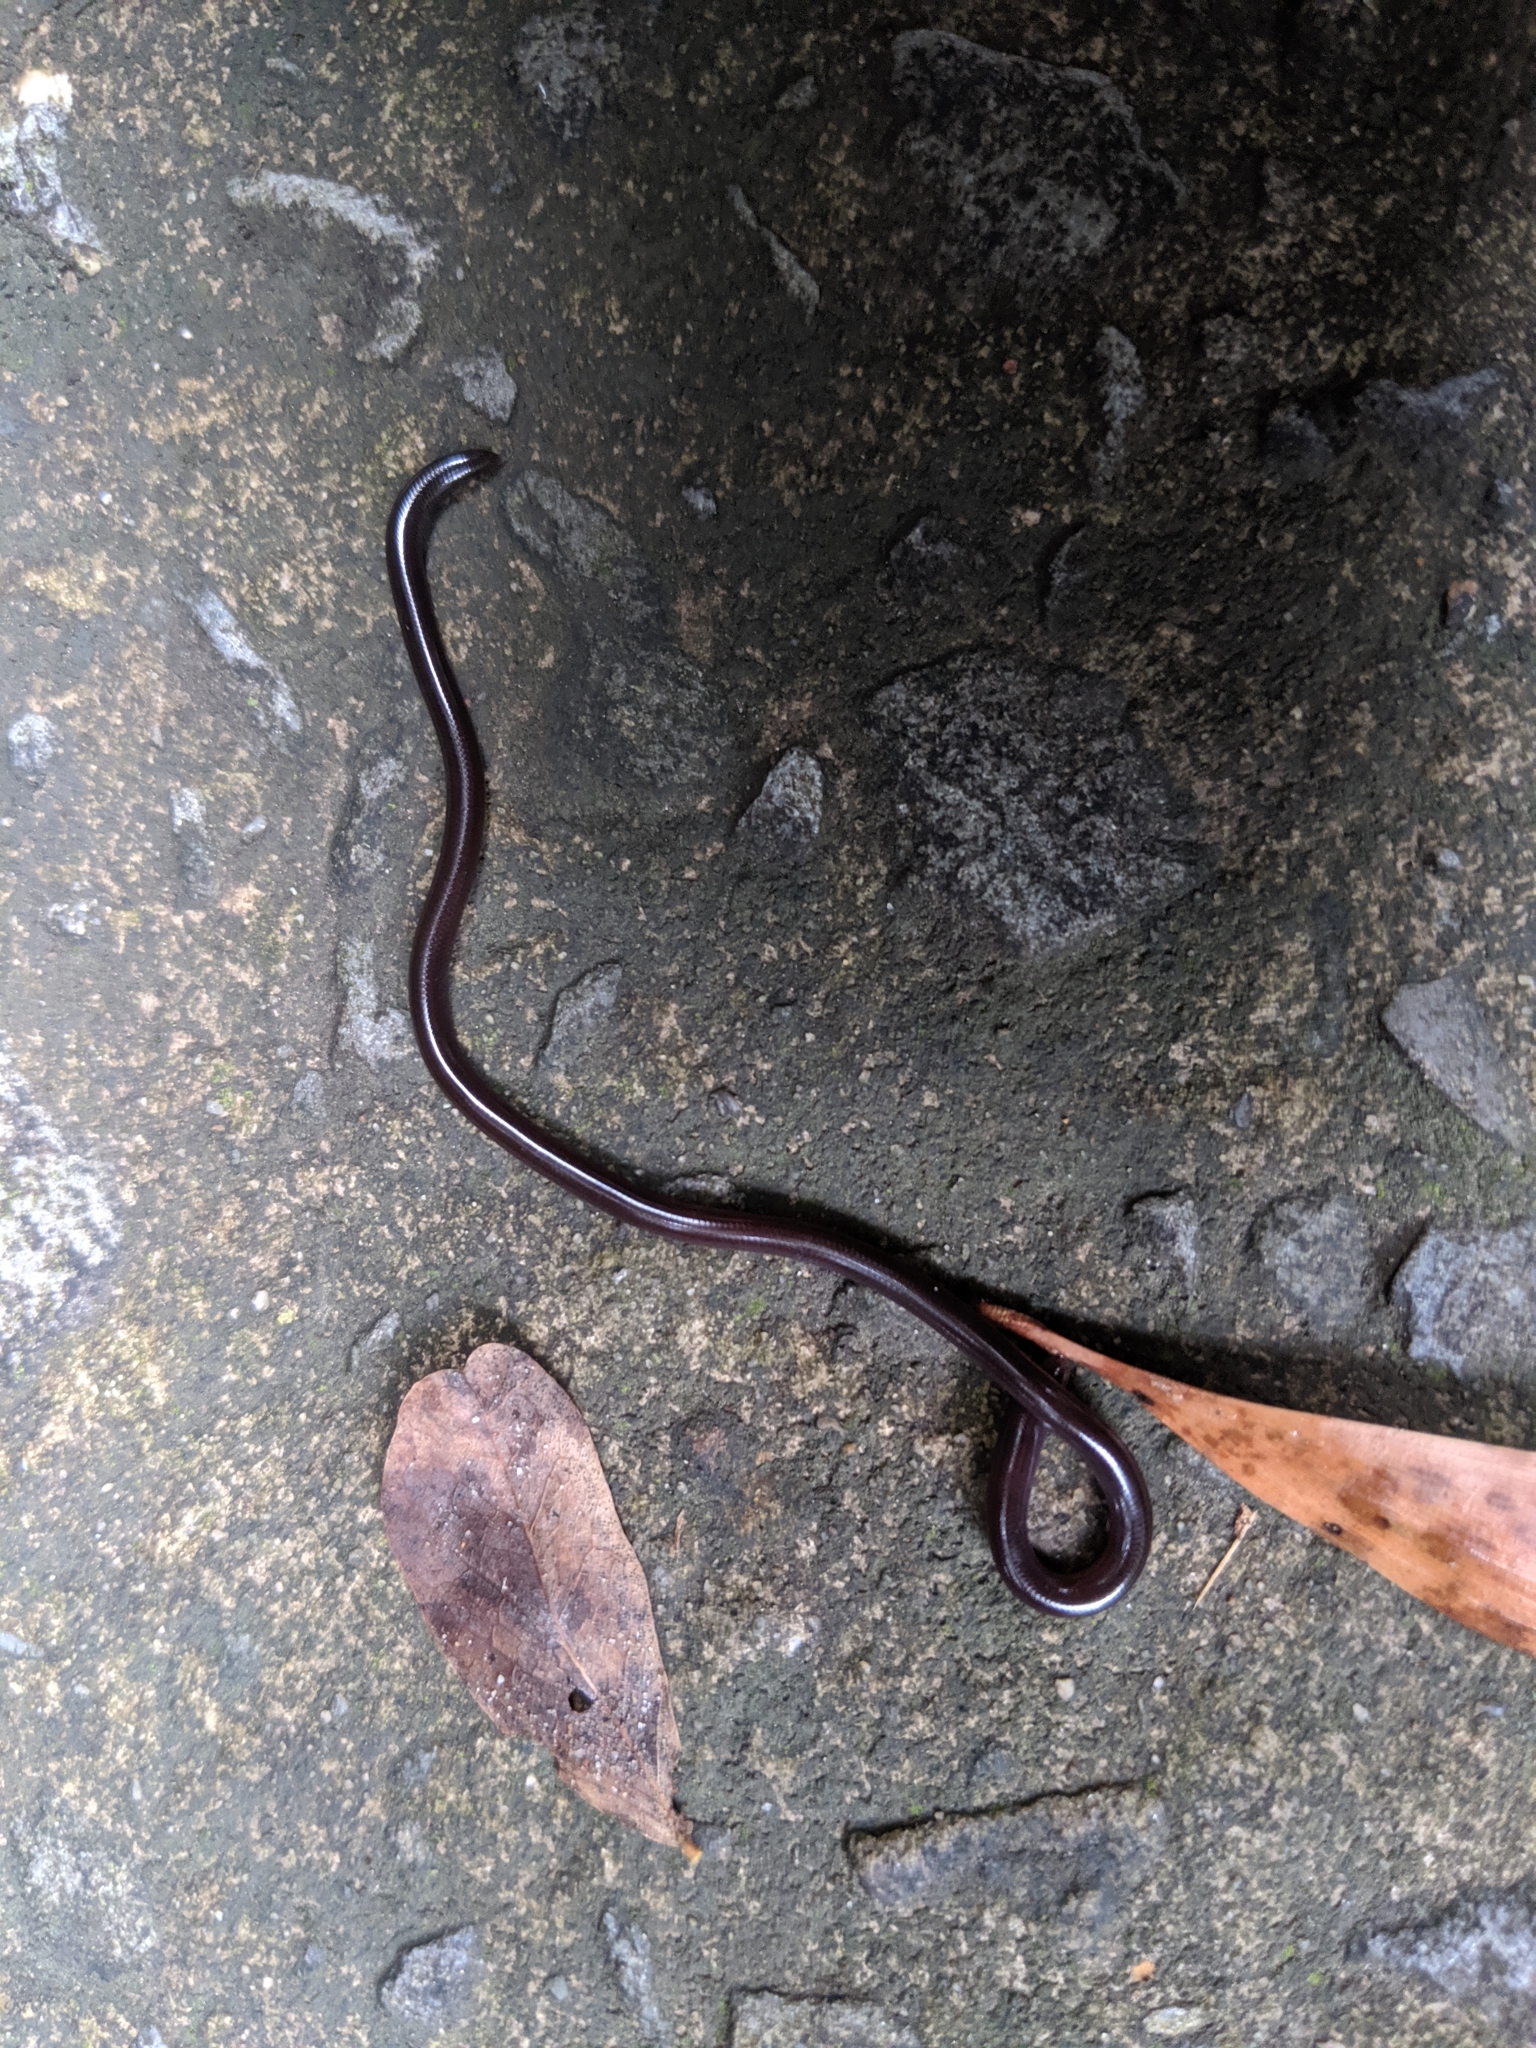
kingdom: Animalia
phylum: Chordata
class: Squamata
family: Typhlopidae
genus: Indotyphlops
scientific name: Indotyphlops braminus
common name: Brahminy blindsnake
